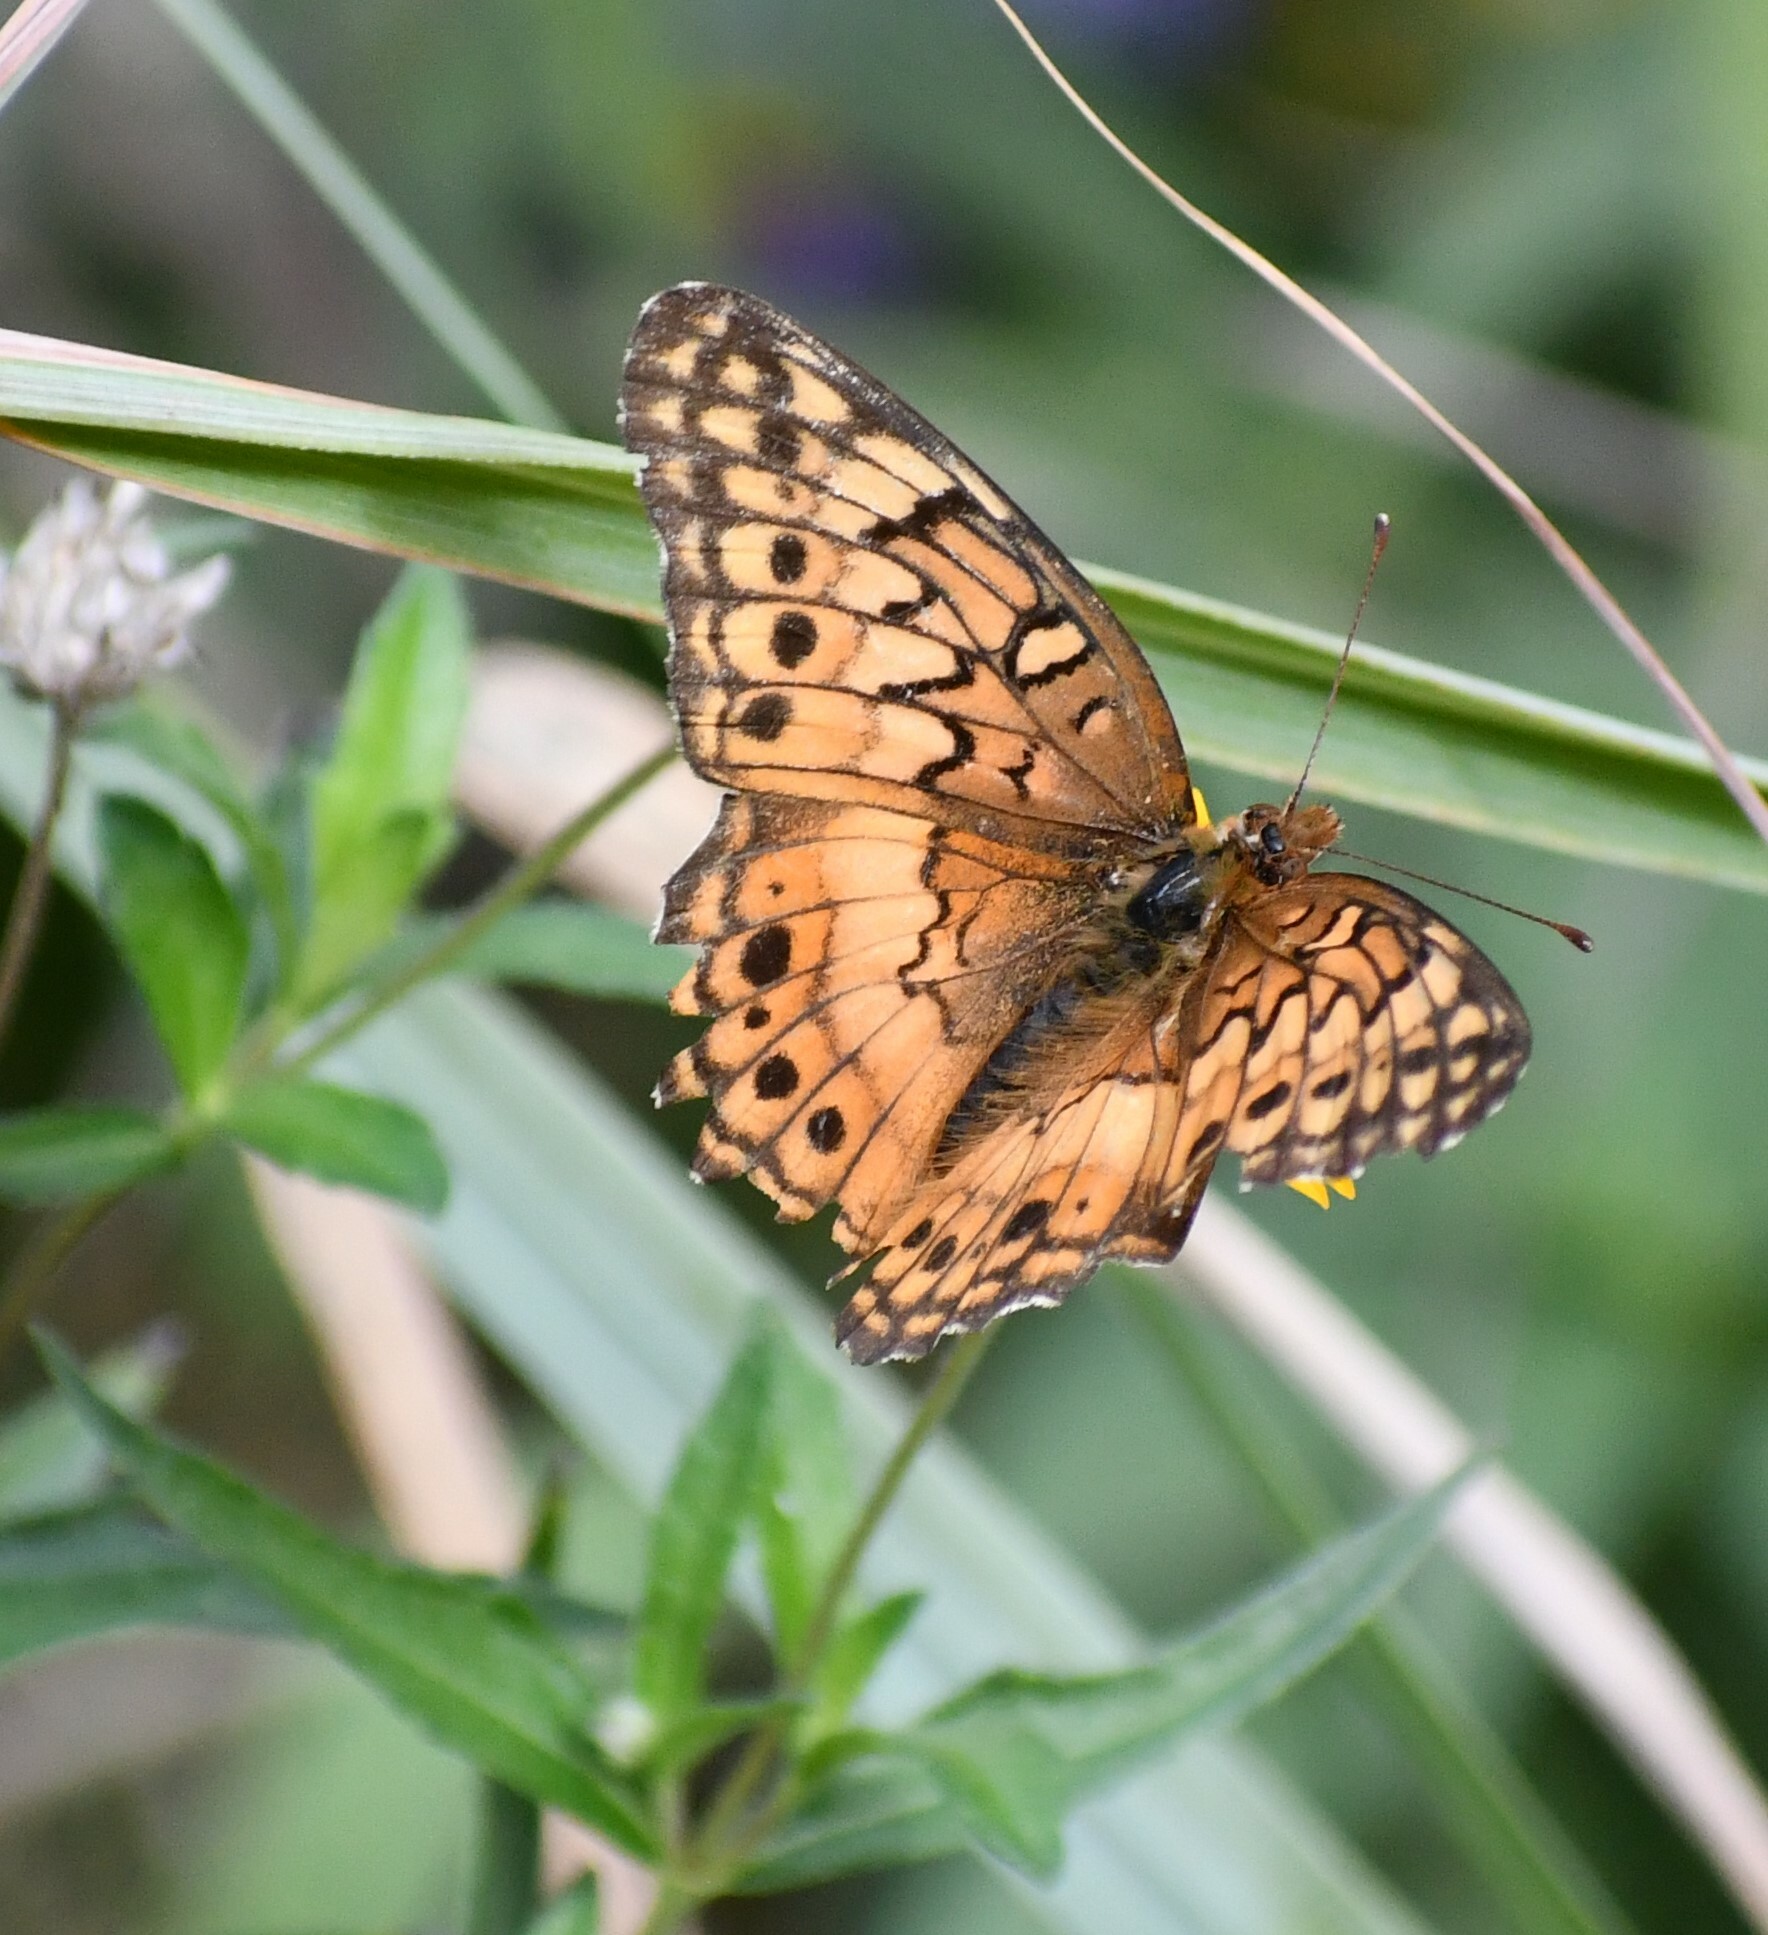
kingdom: Animalia
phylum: Arthropoda
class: Insecta
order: Lepidoptera
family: Nymphalidae
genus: Euptoieta
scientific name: Euptoieta claudia
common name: Variegated fritillary
